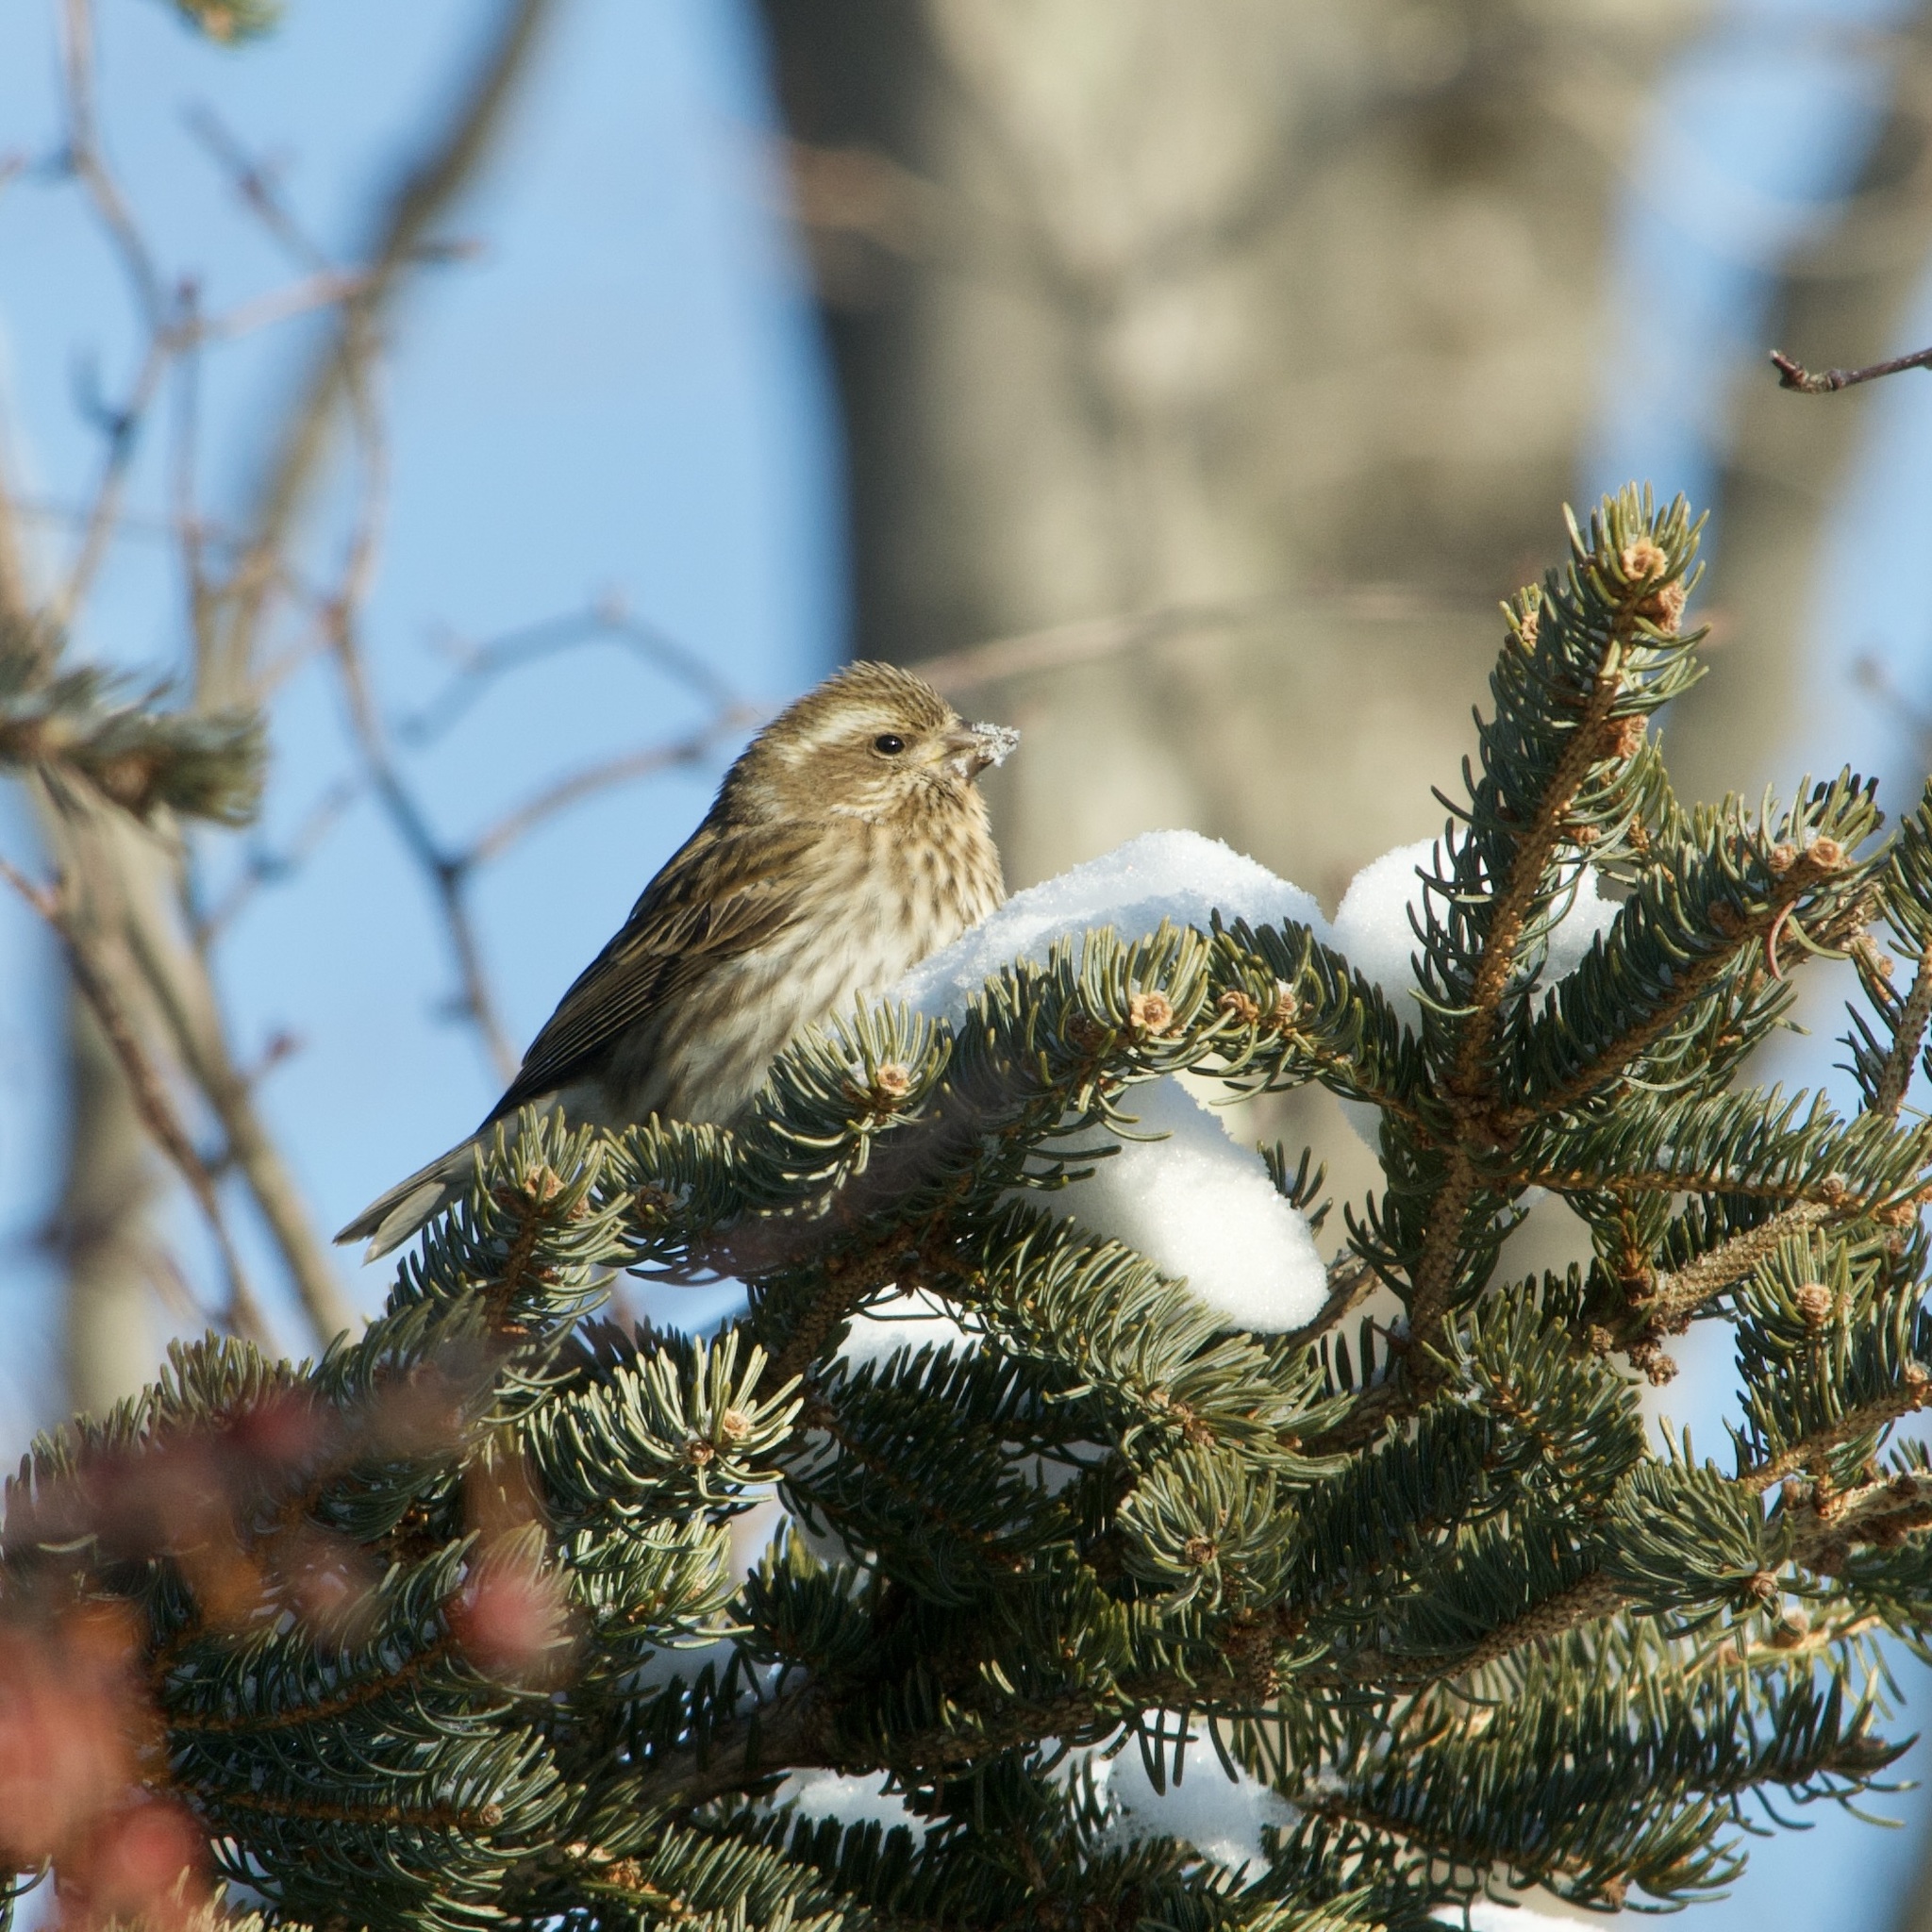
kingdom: Animalia
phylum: Chordata
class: Aves
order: Passeriformes
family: Fringillidae
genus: Haemorhous
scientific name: Haemorhous purpureus
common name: Purple finch
